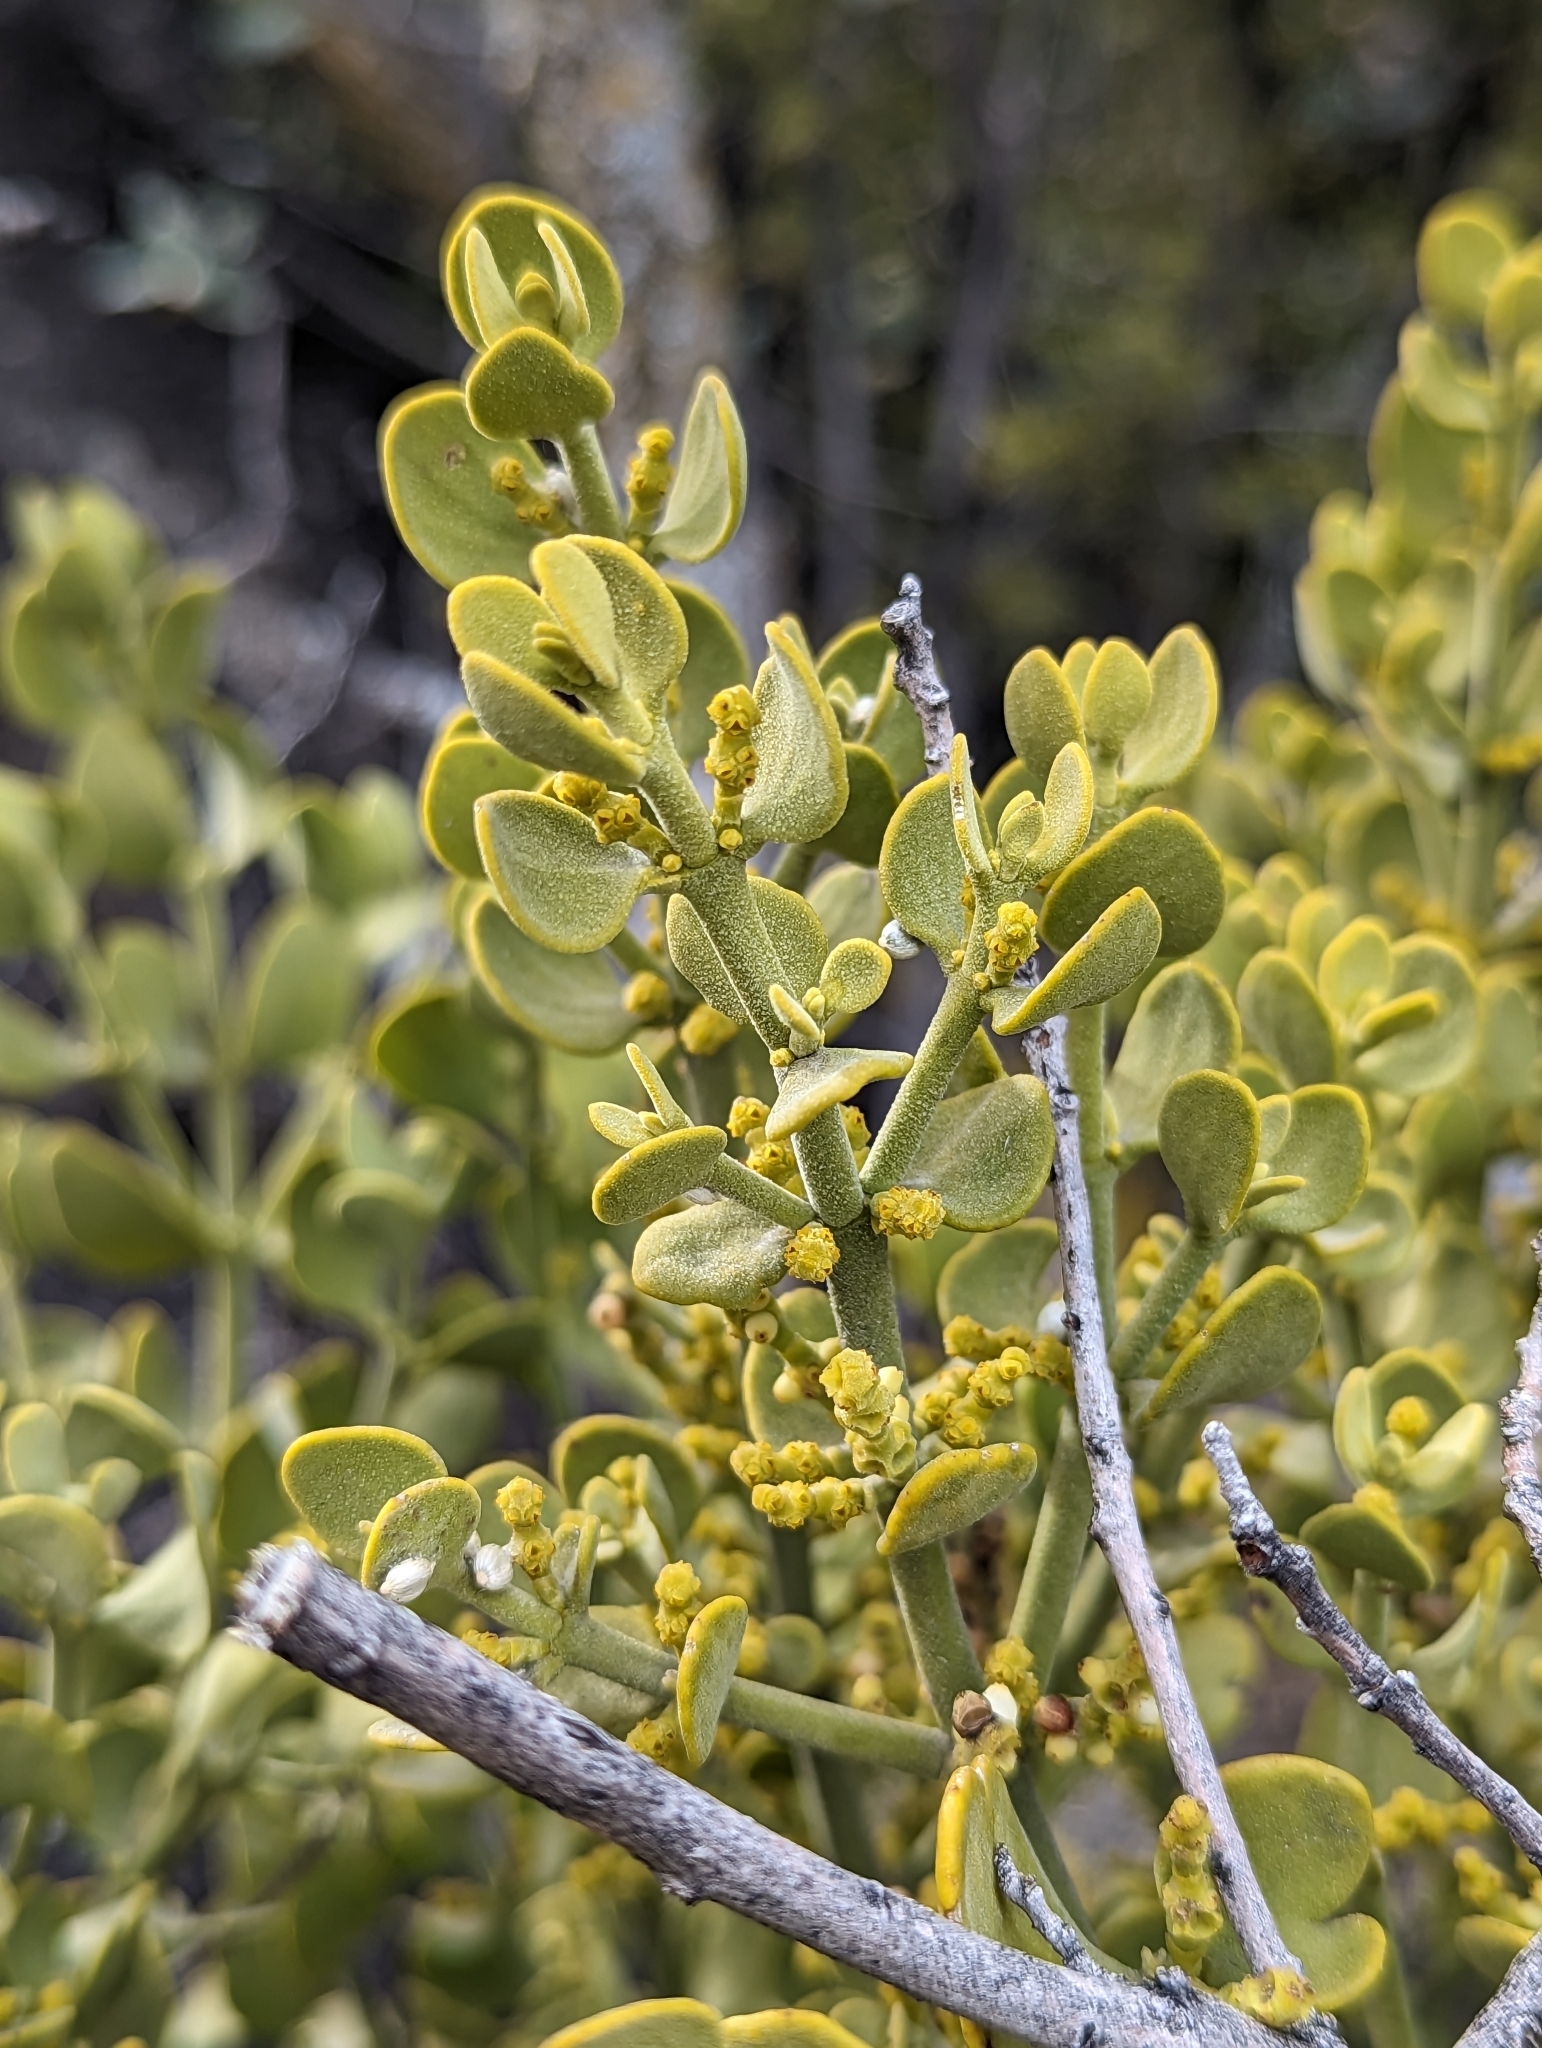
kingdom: Plantae
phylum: Tracheophyta
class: Magnoliopsida
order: Santalales
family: Viscaceae
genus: Phoradendron
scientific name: Phoradendron coryae
